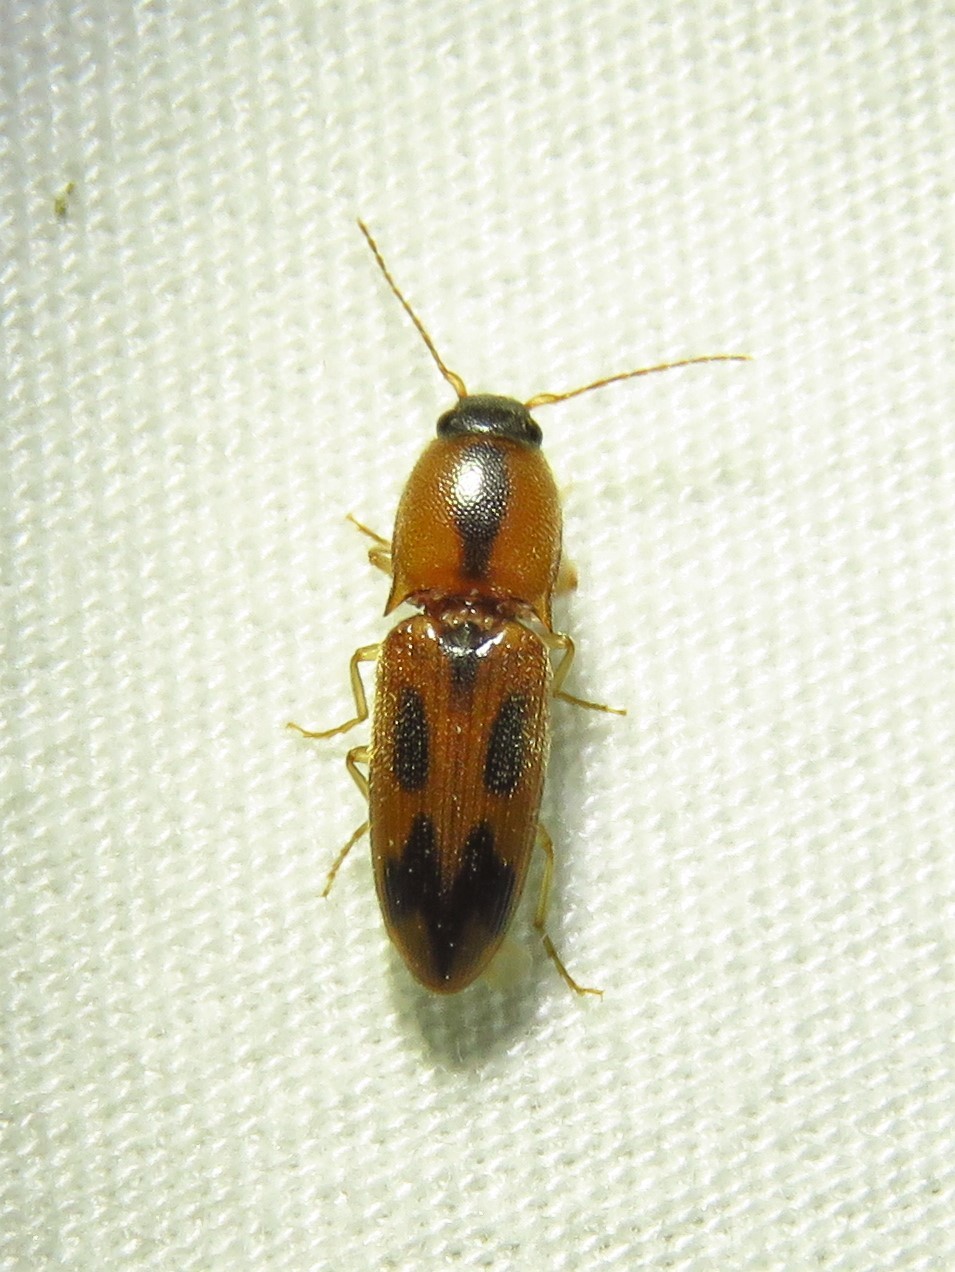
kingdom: Animalia
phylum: Arthropoda
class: Insecta
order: Coleoptera
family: Elateridae
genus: Aeolus
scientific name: Aeolus
